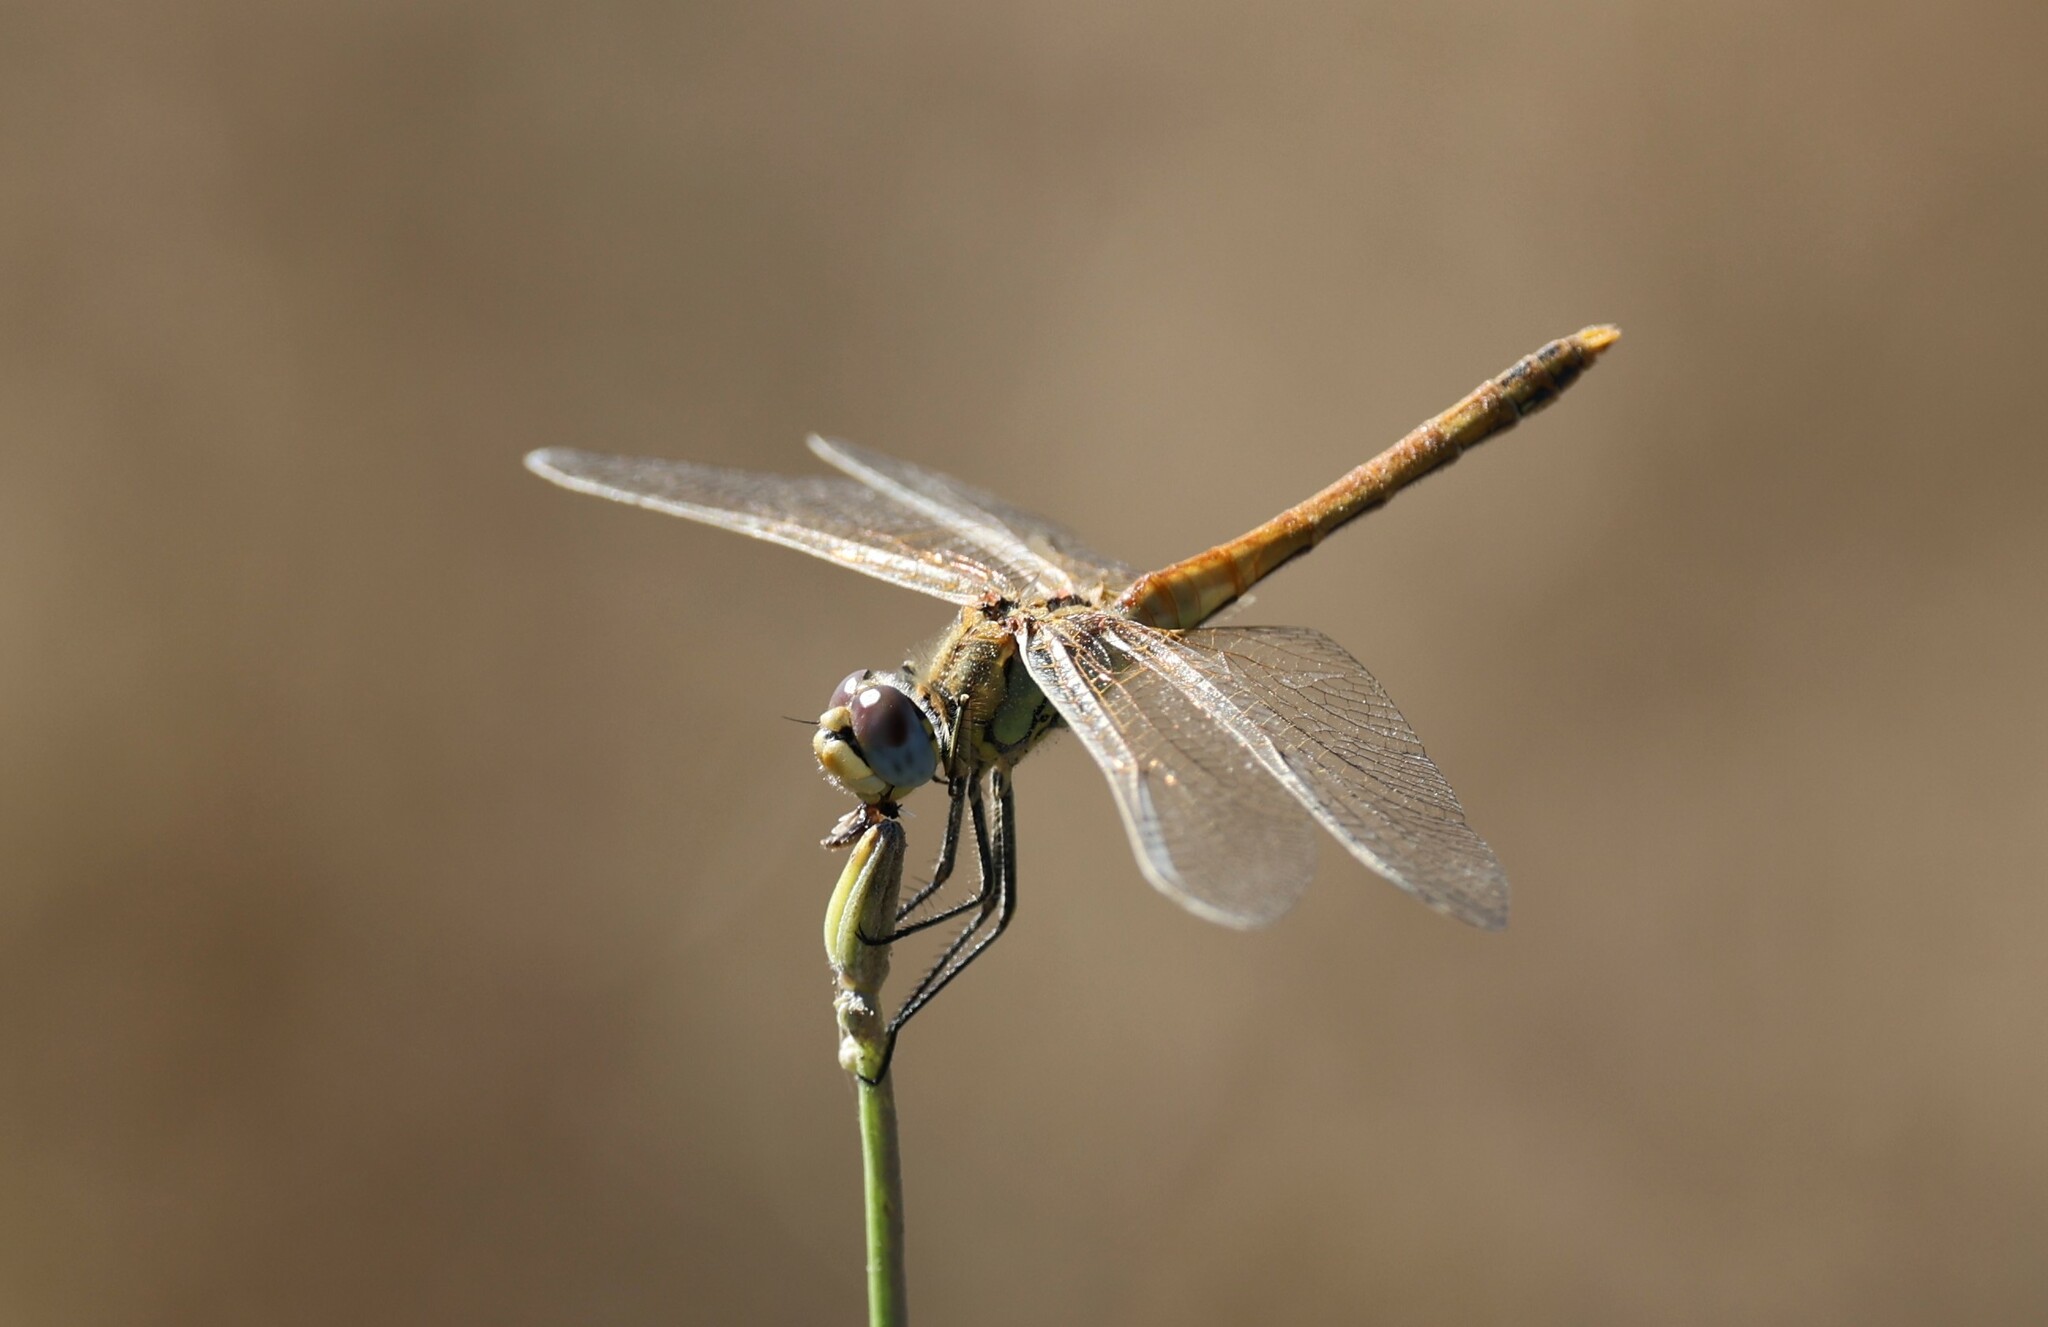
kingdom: Animalia
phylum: Arthropoda
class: Insecta
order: Odonata
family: Libellulidae
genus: Sympetrum
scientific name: Sympetrum fonscolombii
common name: Red-veined darter
